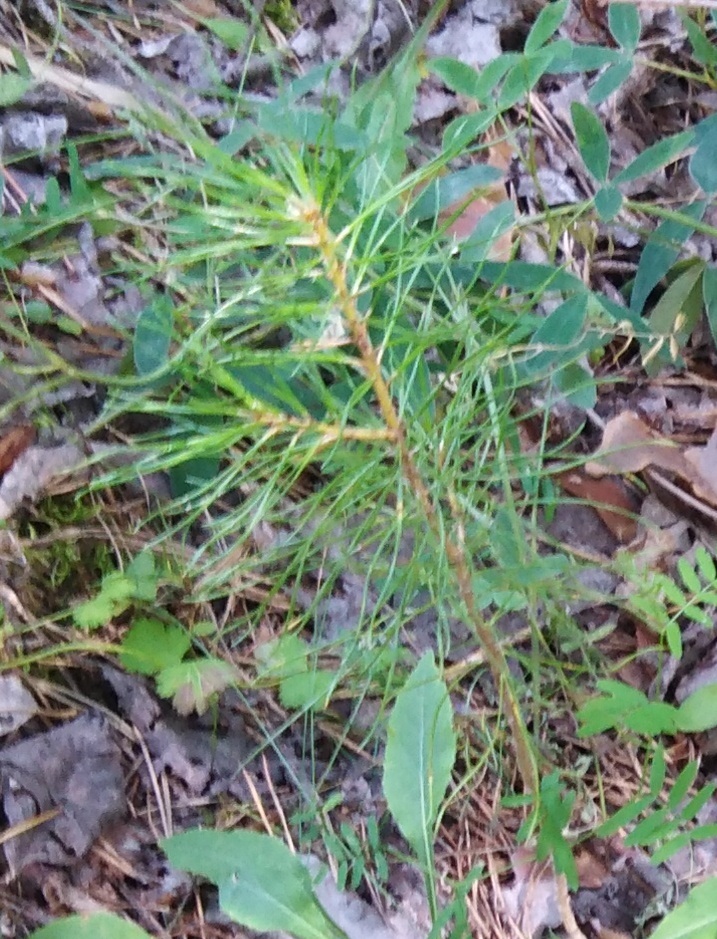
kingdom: Plantae
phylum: Tracheophyta
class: Pinopsida
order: Pinales
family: Pinaceae
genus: Pinus
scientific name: Pinus sylvestris
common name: Scots pine
